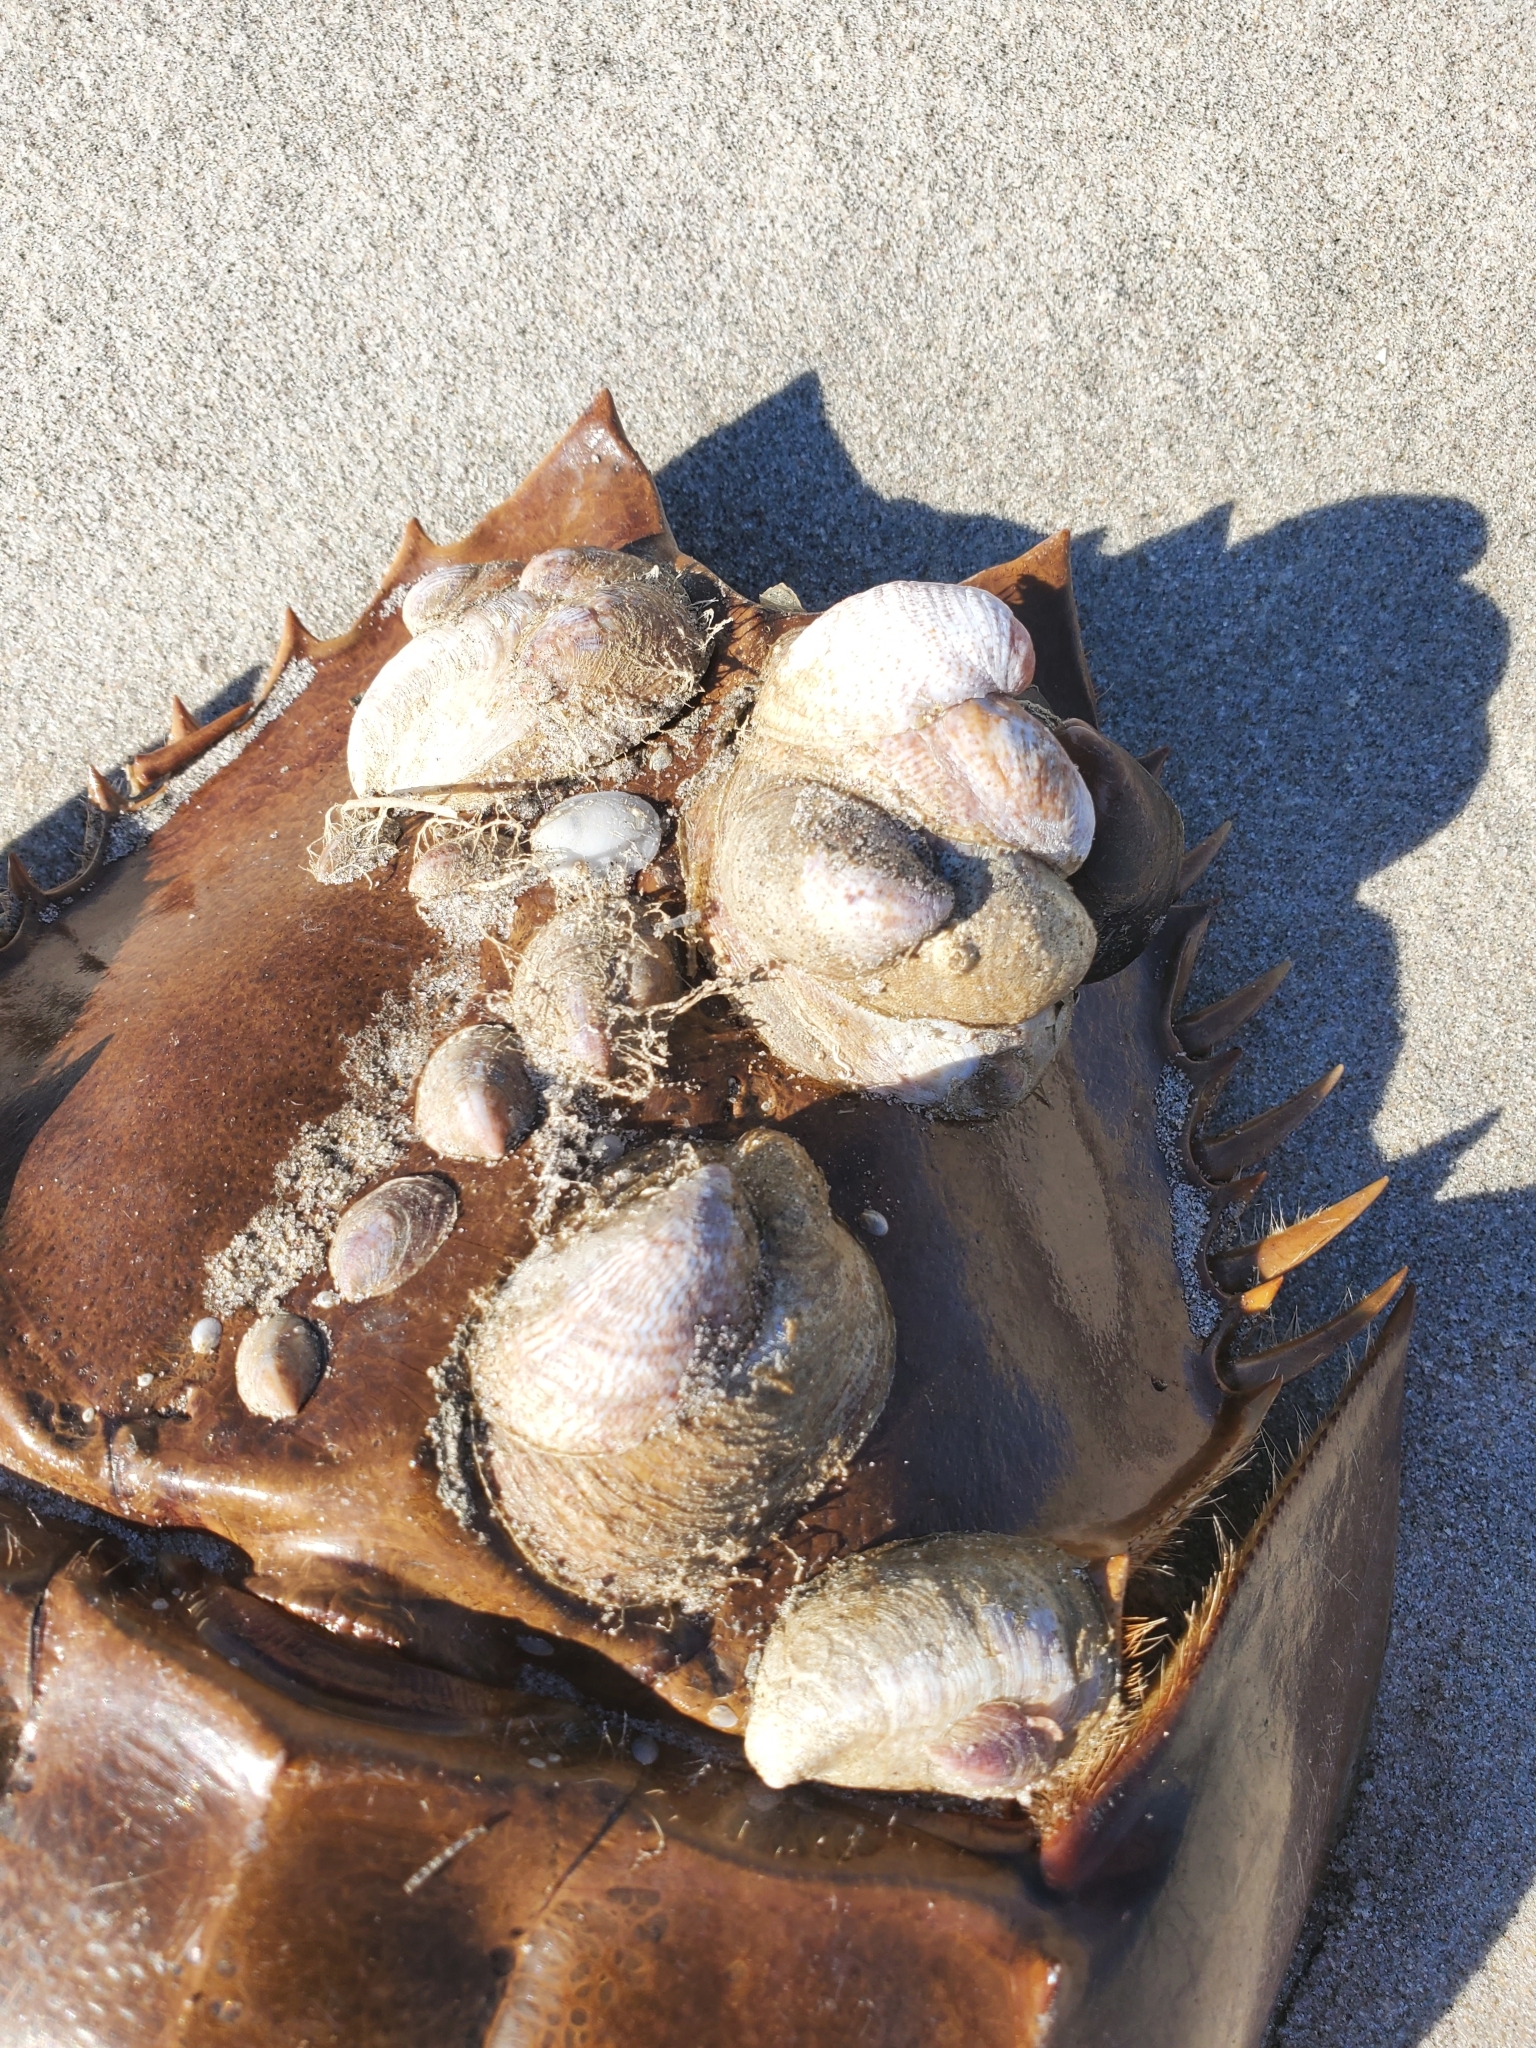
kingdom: Animalia
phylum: Arthropoda
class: Merostomata
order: Xiphosurida
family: Limulidae
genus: Limulus
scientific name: Limulus polyphemus
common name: Horseshoe crab
